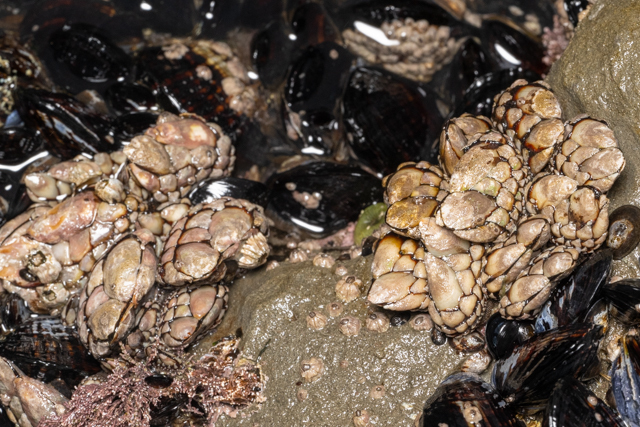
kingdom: Animalia
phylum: Arthropoda
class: Maxillopoda
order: Pedunculata
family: Pollicipedidae
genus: Pollicipes
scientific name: Pollicipes polymerus
